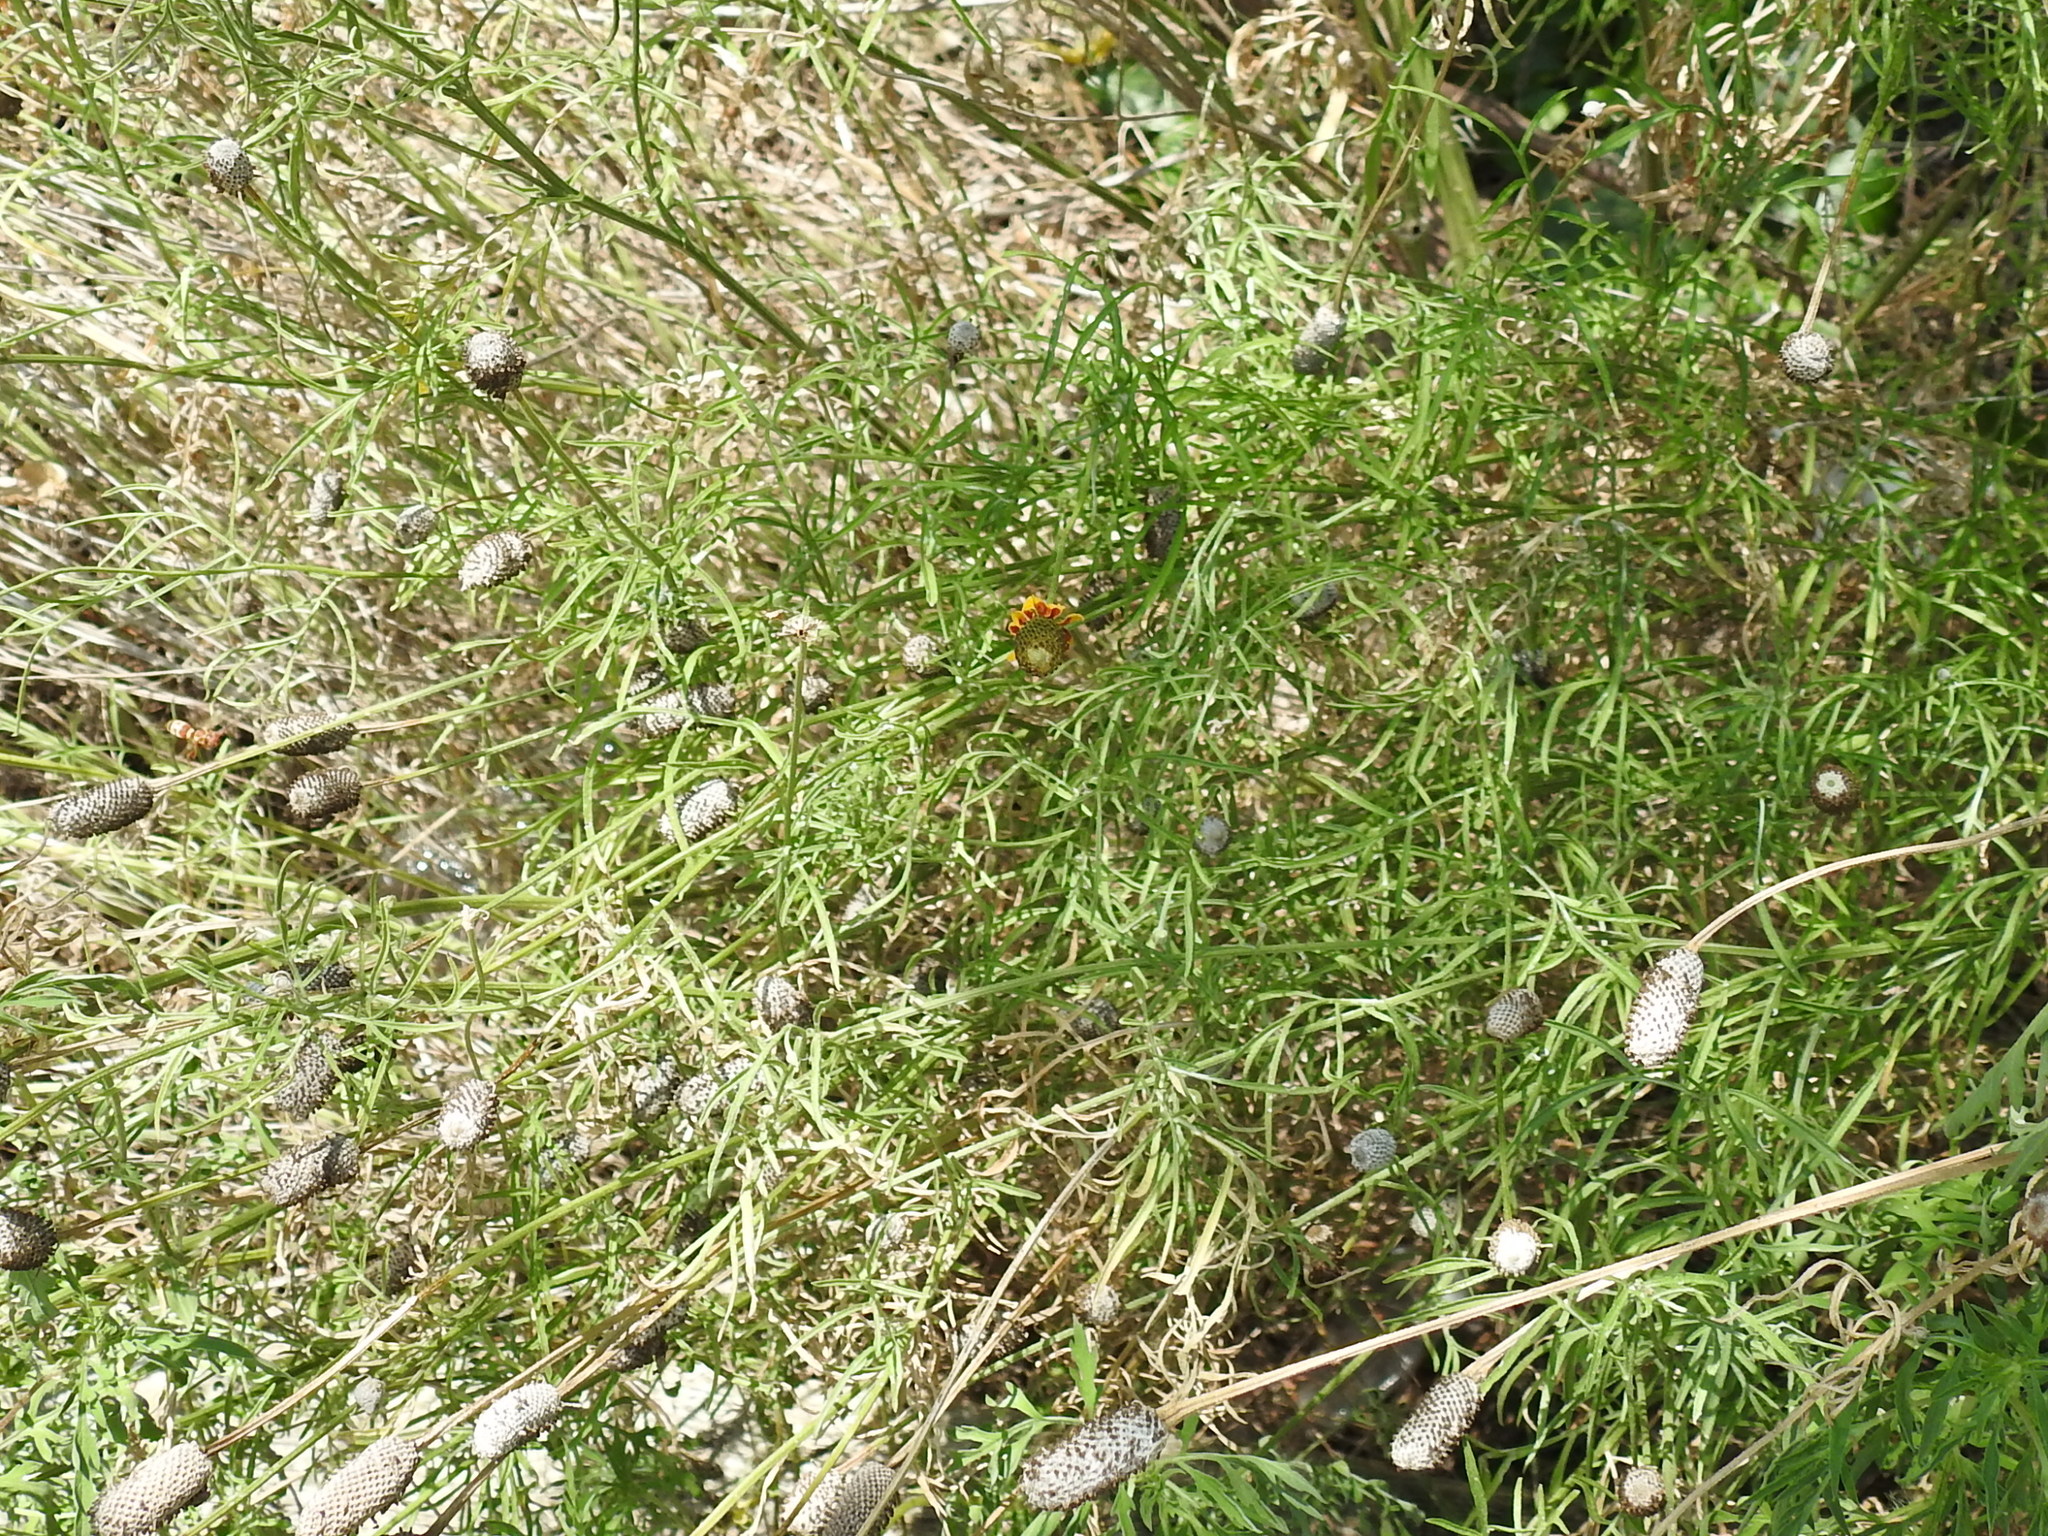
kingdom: Plantae
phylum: Tracheophyta
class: Magnoliopsida
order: Asterales
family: Asteraceae
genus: Ratibida
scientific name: Ratibida columnifera
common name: Prairie coneflower
